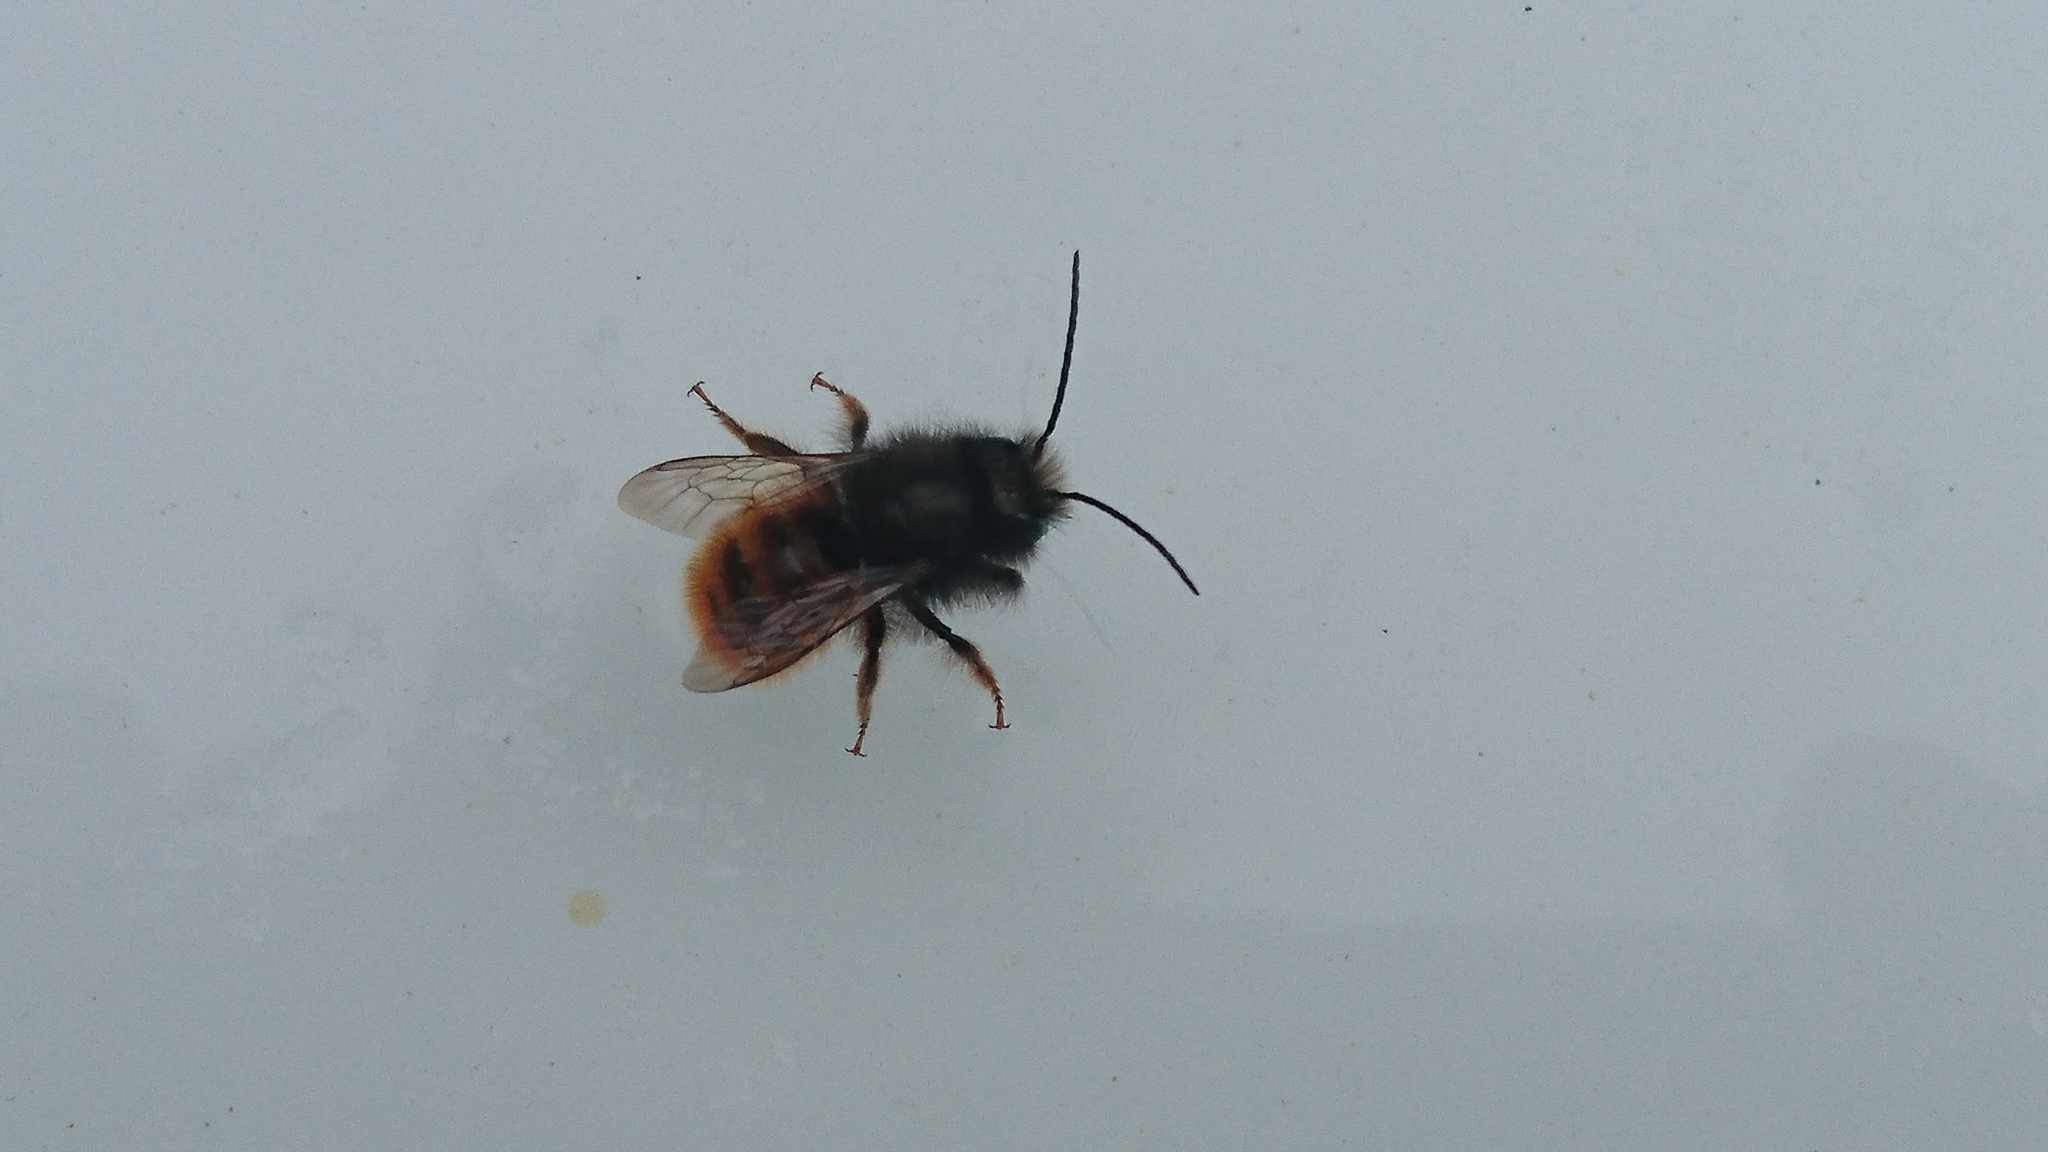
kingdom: Animalia
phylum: Arthropoda
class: Insecta
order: Hymenoptera
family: Megachilidae
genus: Osmia
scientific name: Osmia cornuta
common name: Mason bee
